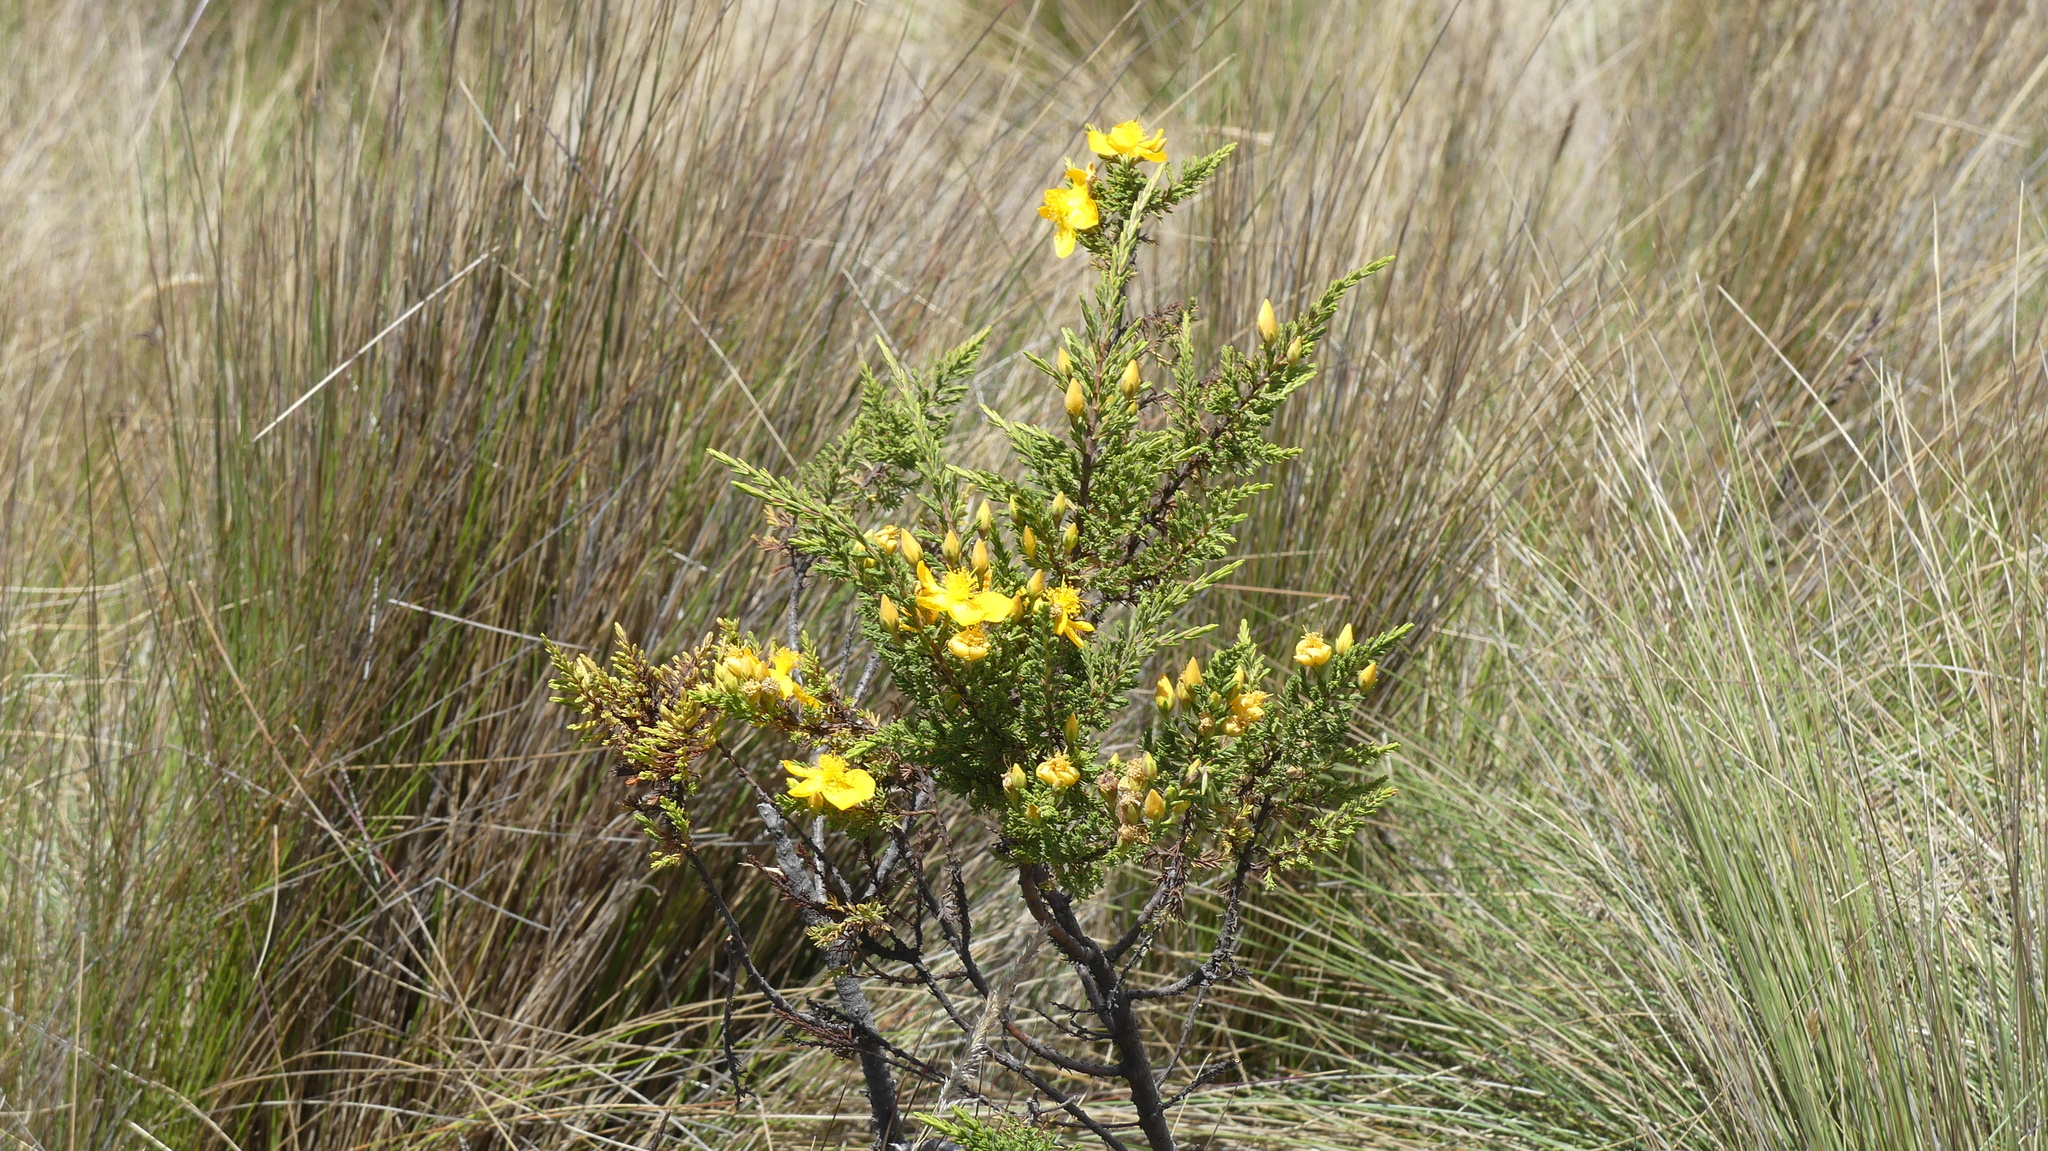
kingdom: Plantae
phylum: Tracheophyta
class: Magnoliopsida
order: Malpighiales
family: Hypericaceae
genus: Hypericum
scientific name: Hypericum laricifolium
